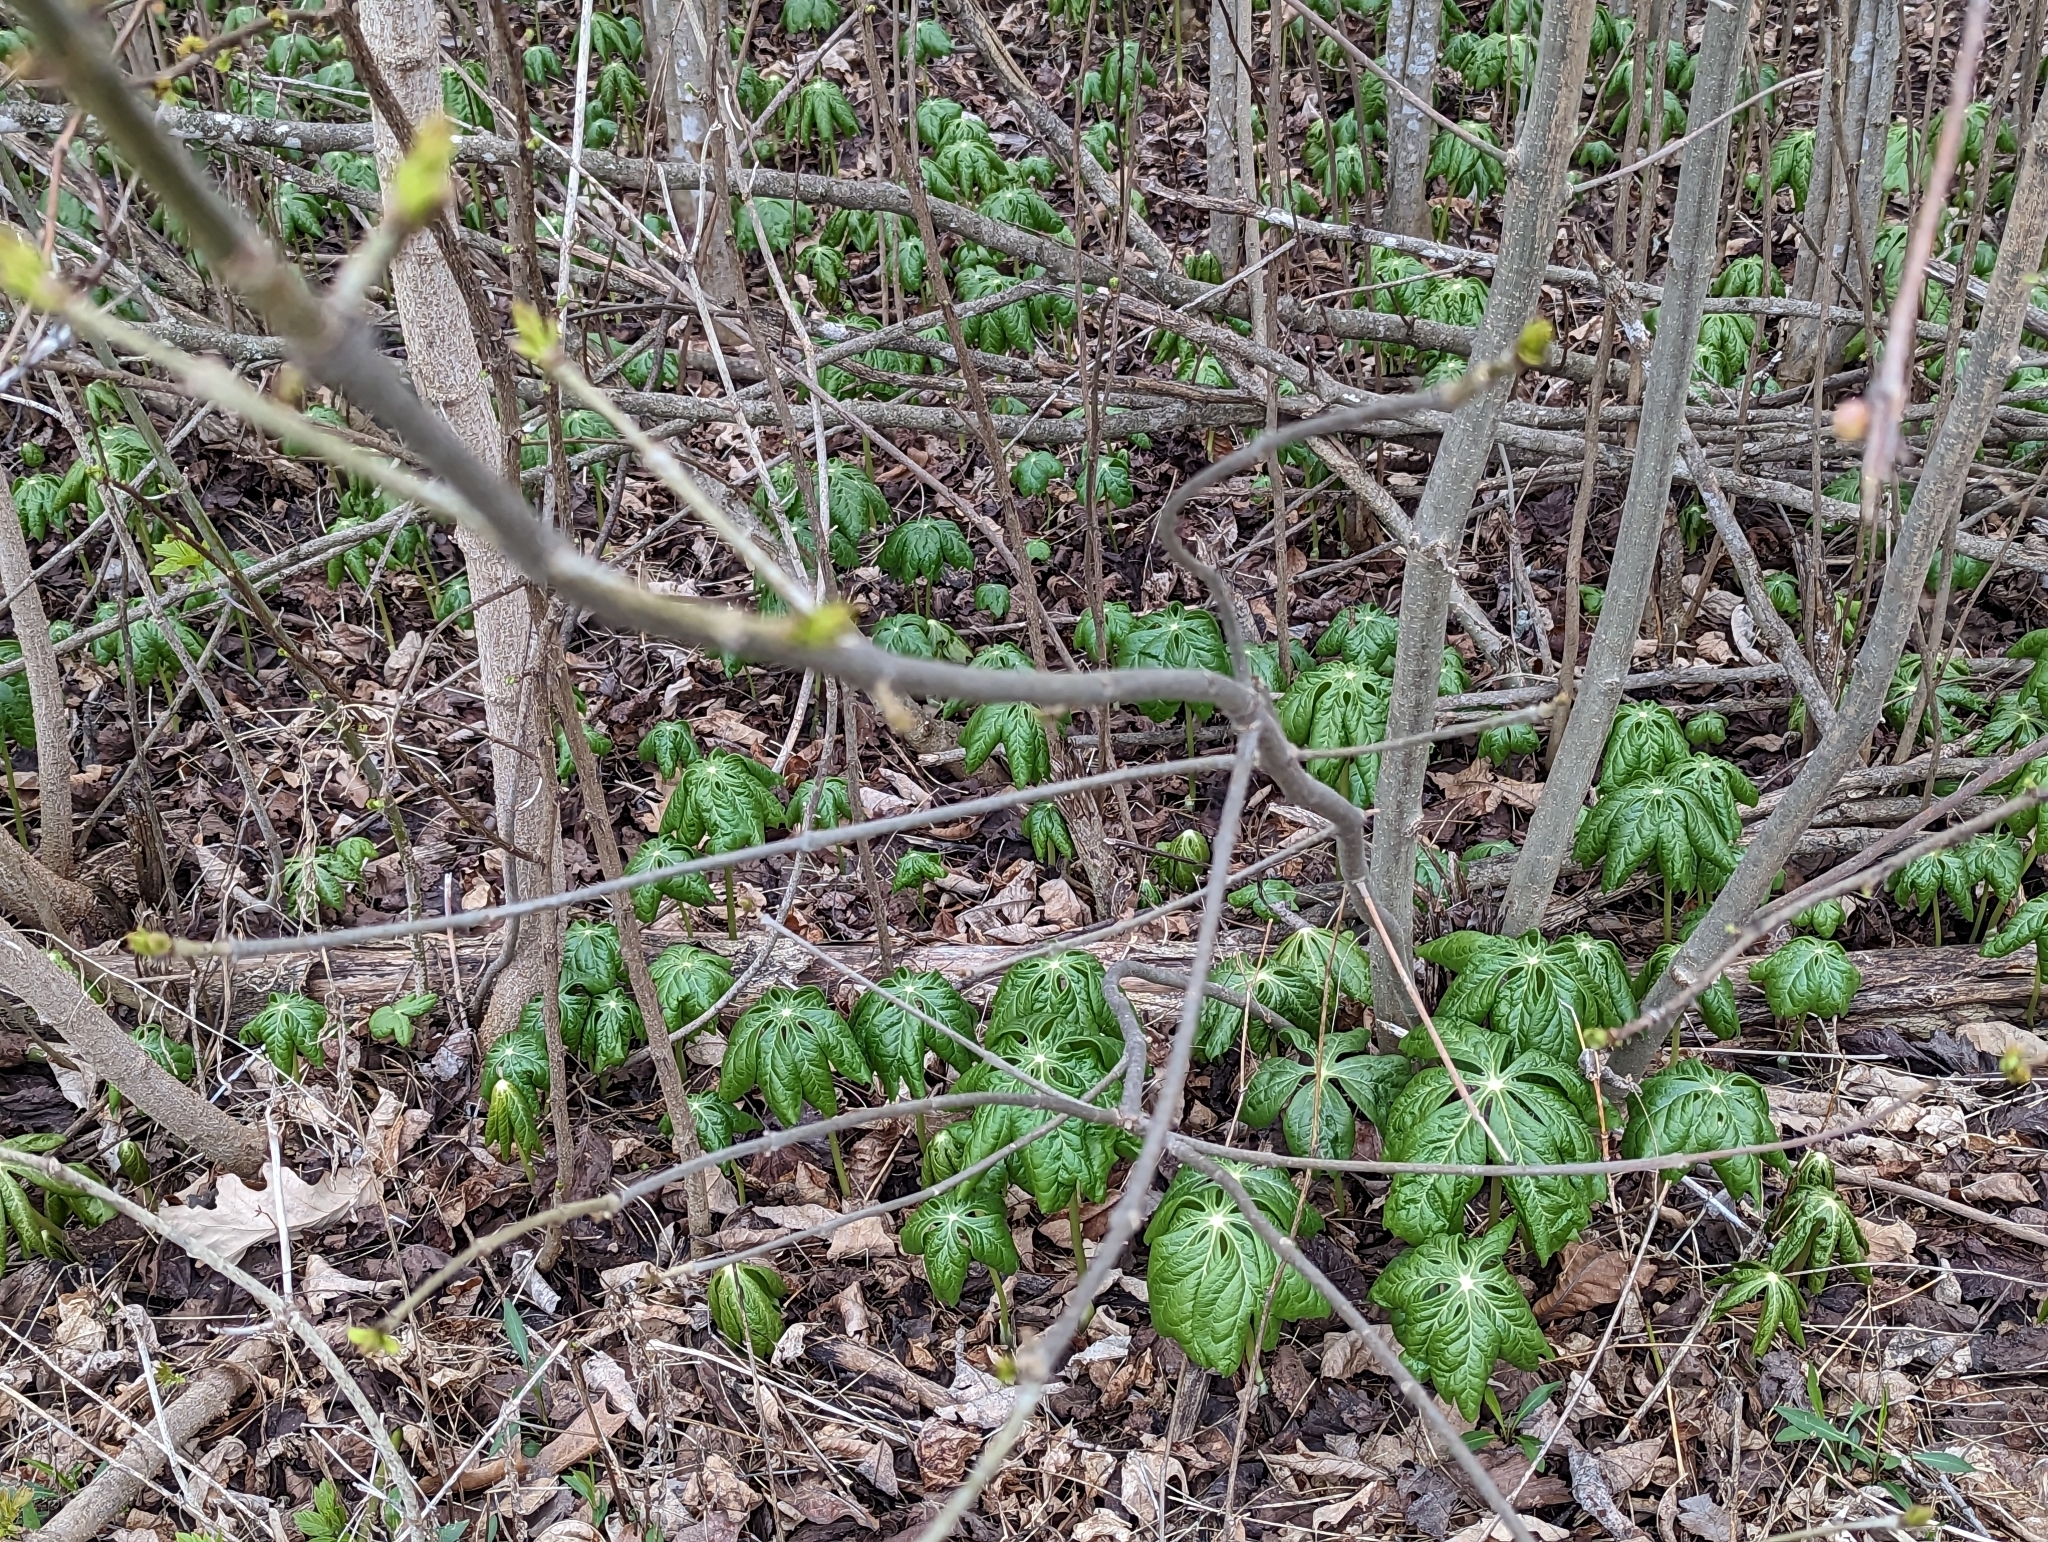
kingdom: Plantae
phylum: Tracheophyta
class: Magnoliopsida
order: Ranunculales
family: Berberidaceae
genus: Podophyllum
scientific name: Podophyllum peltatum
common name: Wild mandrake
